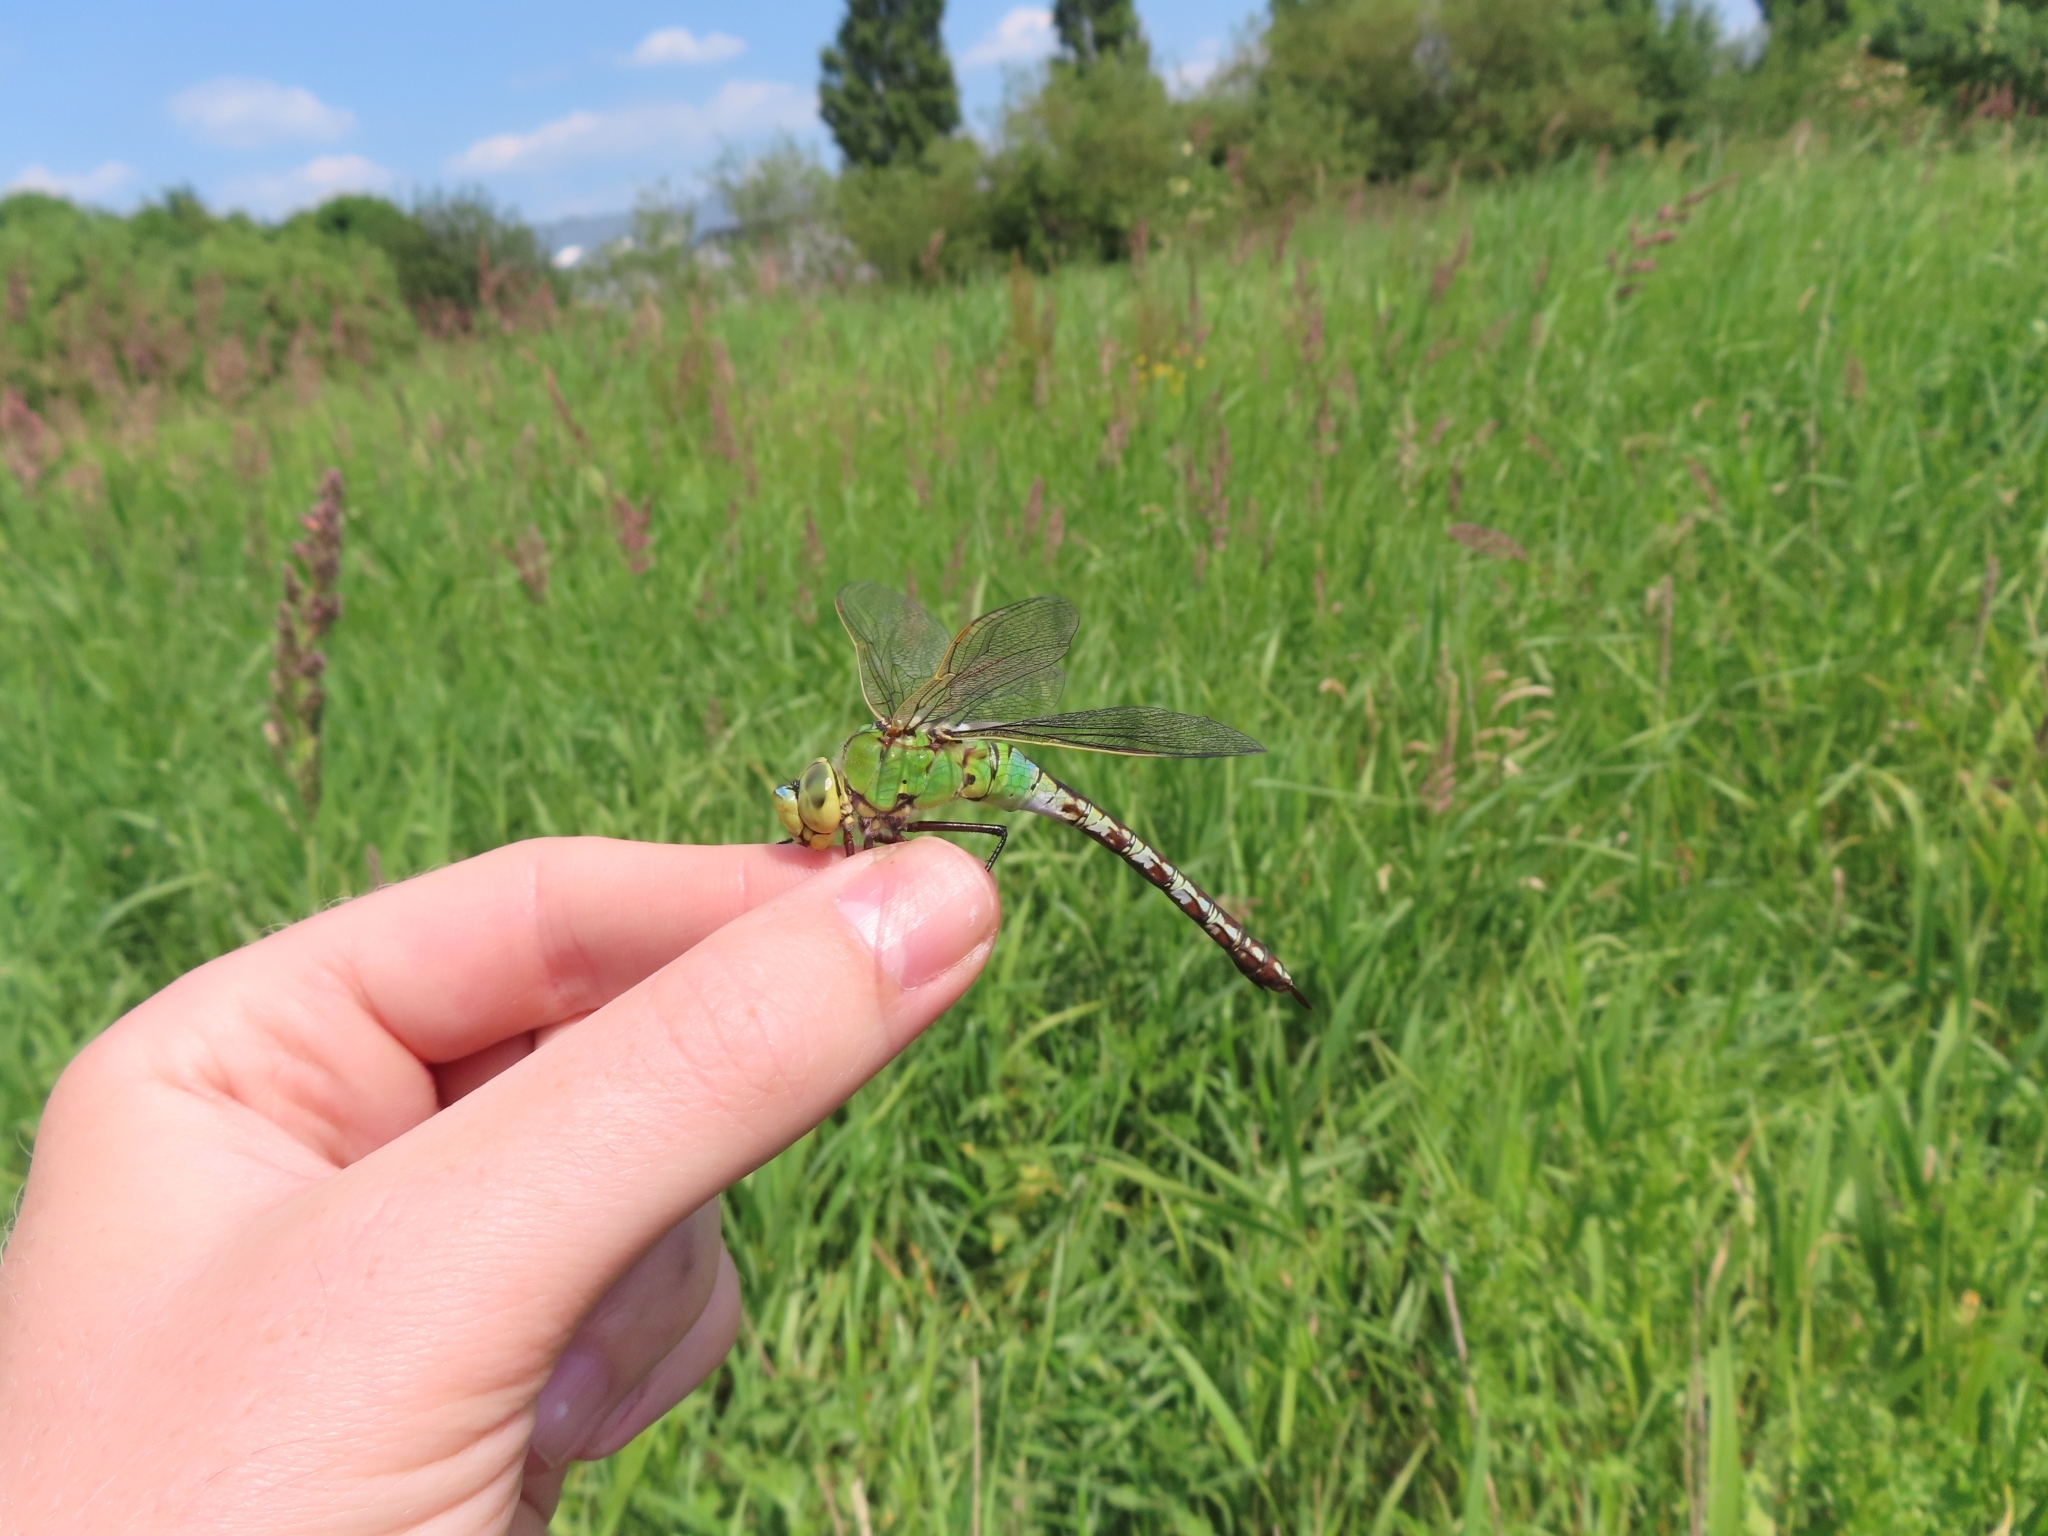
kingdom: Animalia
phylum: Arthropoda
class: Insecta
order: Odonata
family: Aeshnidae
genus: Anax
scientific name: Anax imperator
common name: Emperor dragonfly
